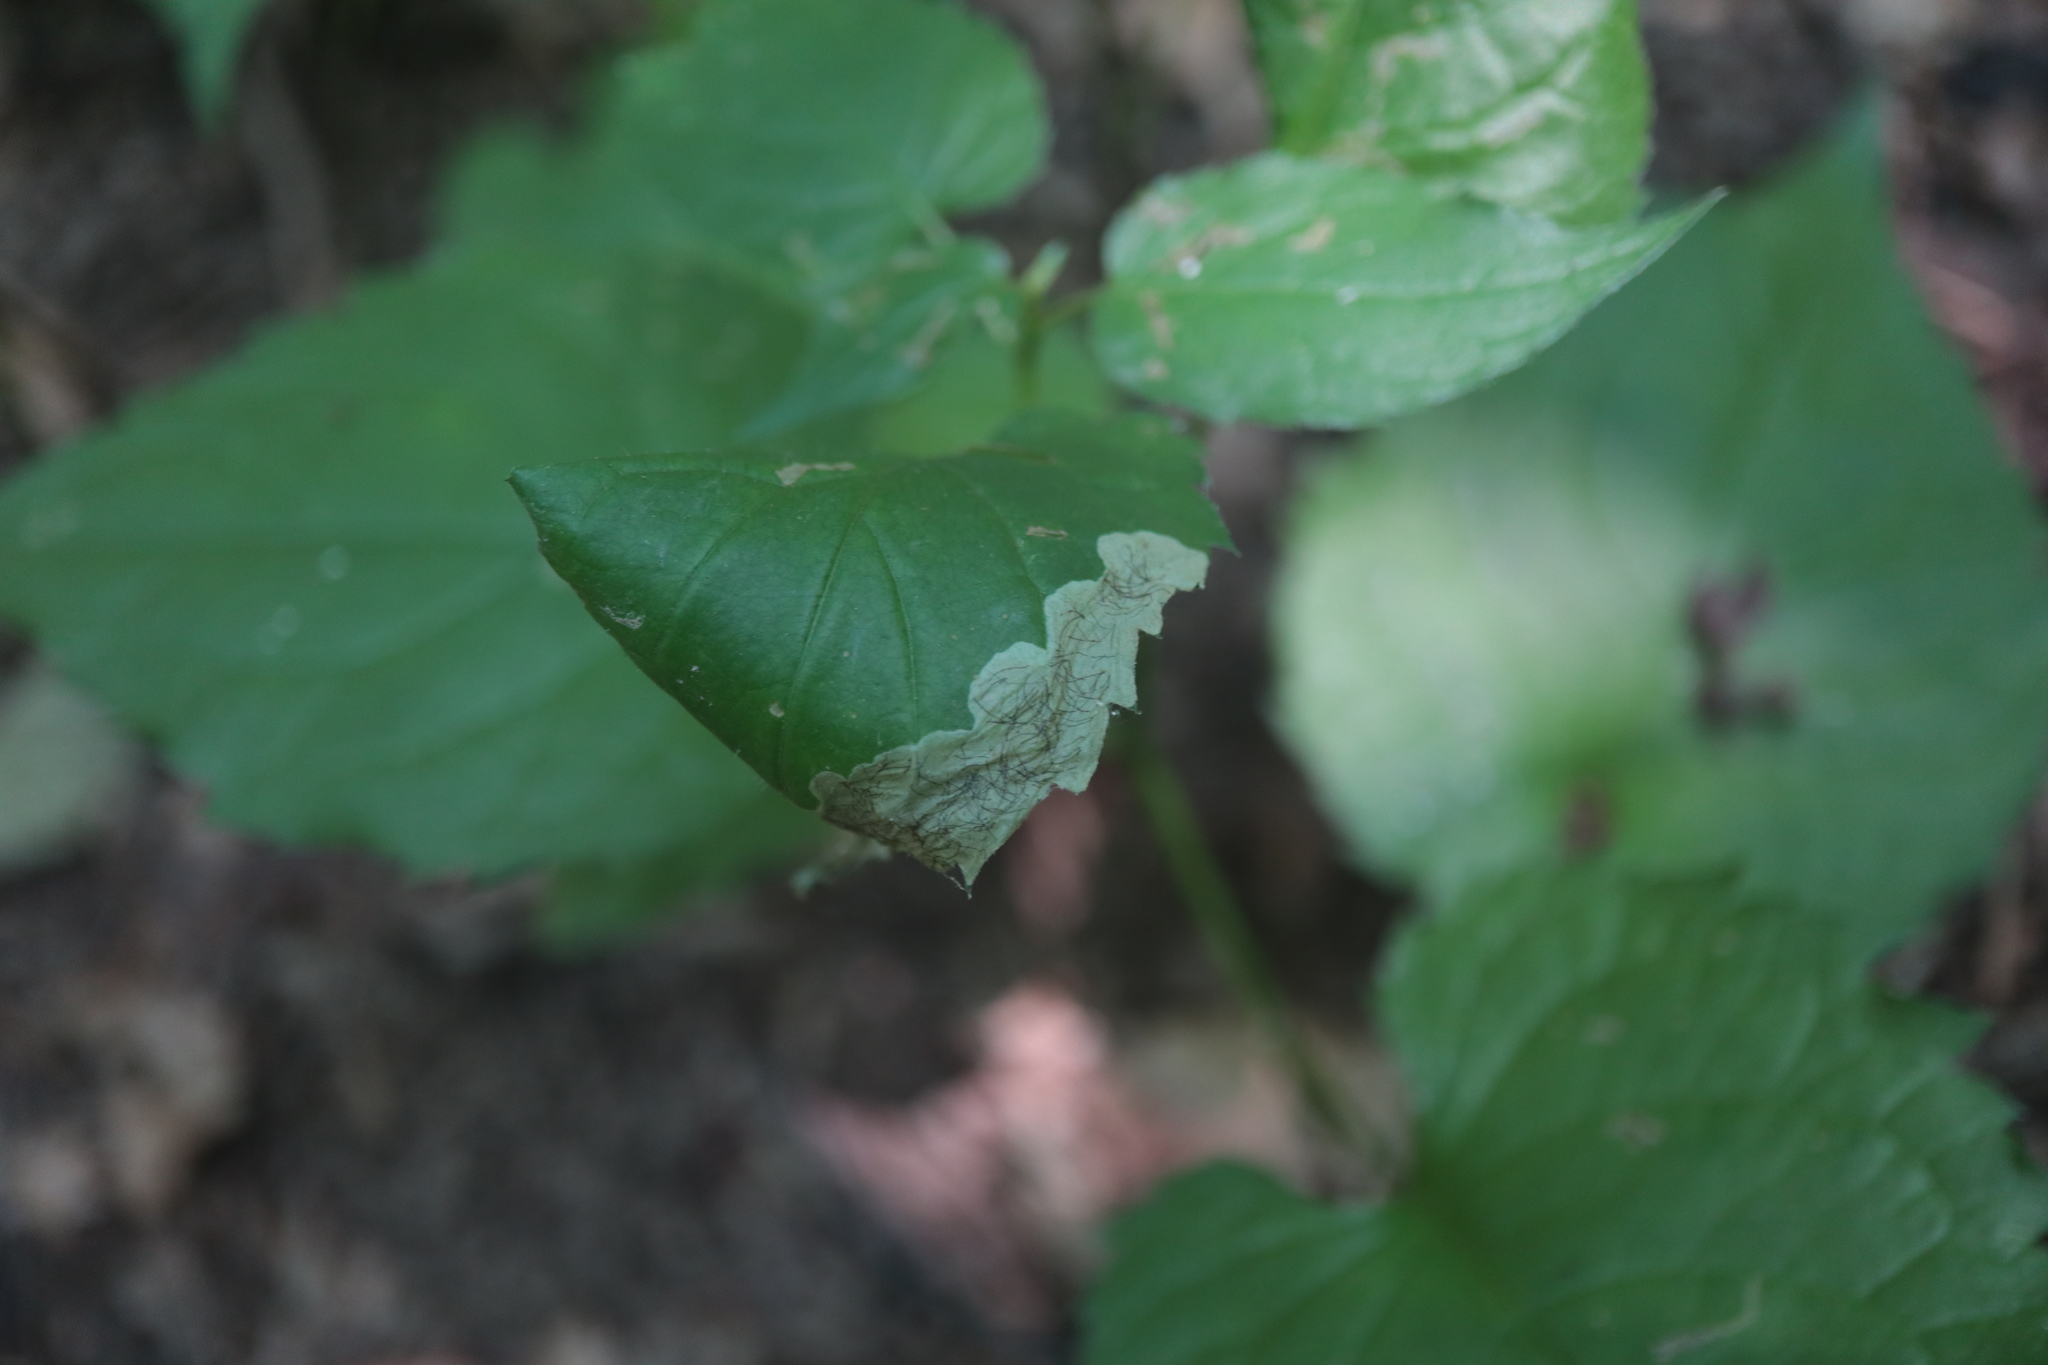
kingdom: Animalia
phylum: Arthropoda
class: Insecta
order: Coleoptera
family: Chrysomelidae
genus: Sumitrosis
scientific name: Sumitrosis inaequalis
